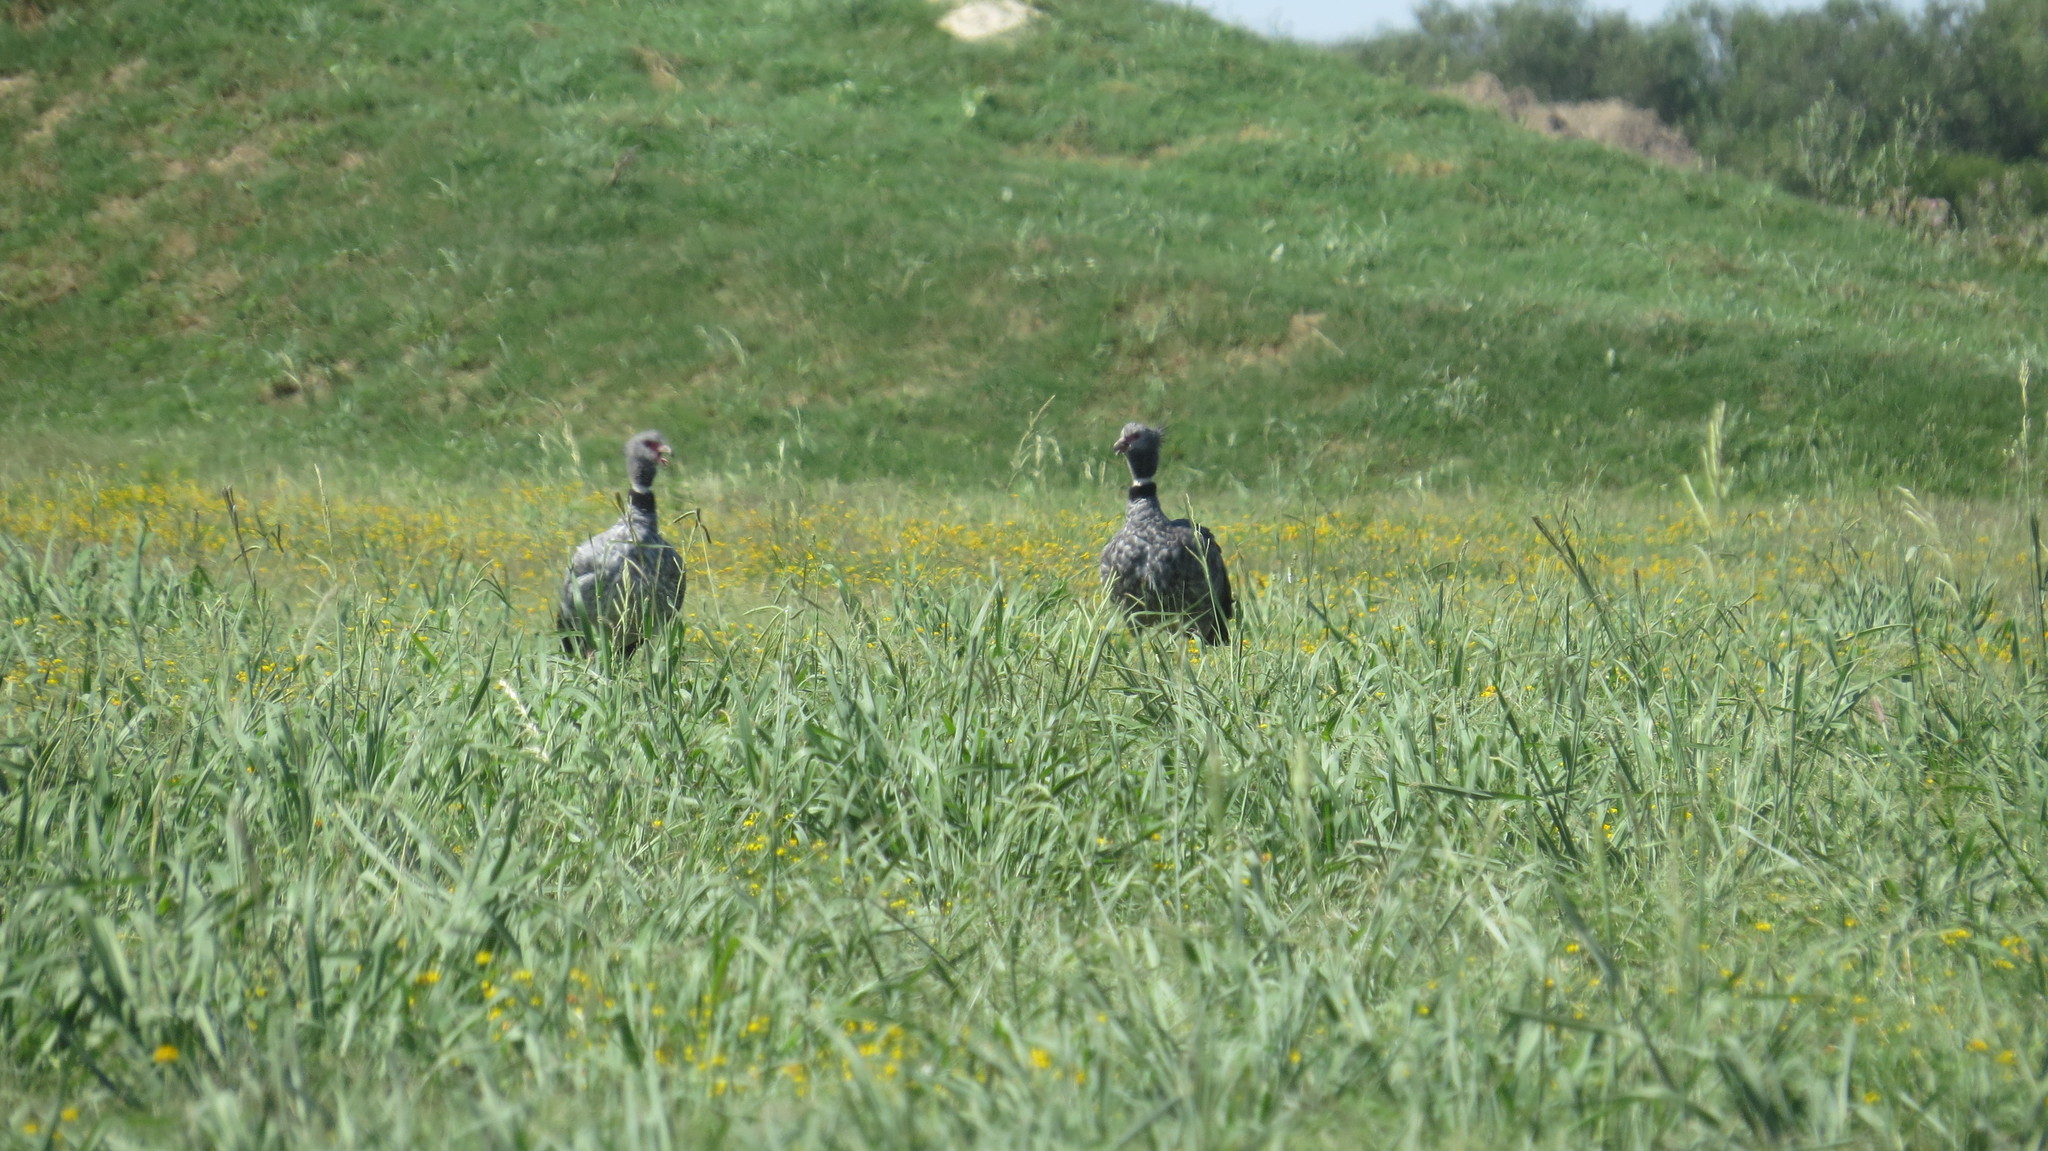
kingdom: Animalia
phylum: Chordata
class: Aves
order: Anseriformes
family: Anhimidae
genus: Chauna
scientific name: Chauna torquata
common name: Southern screamer
